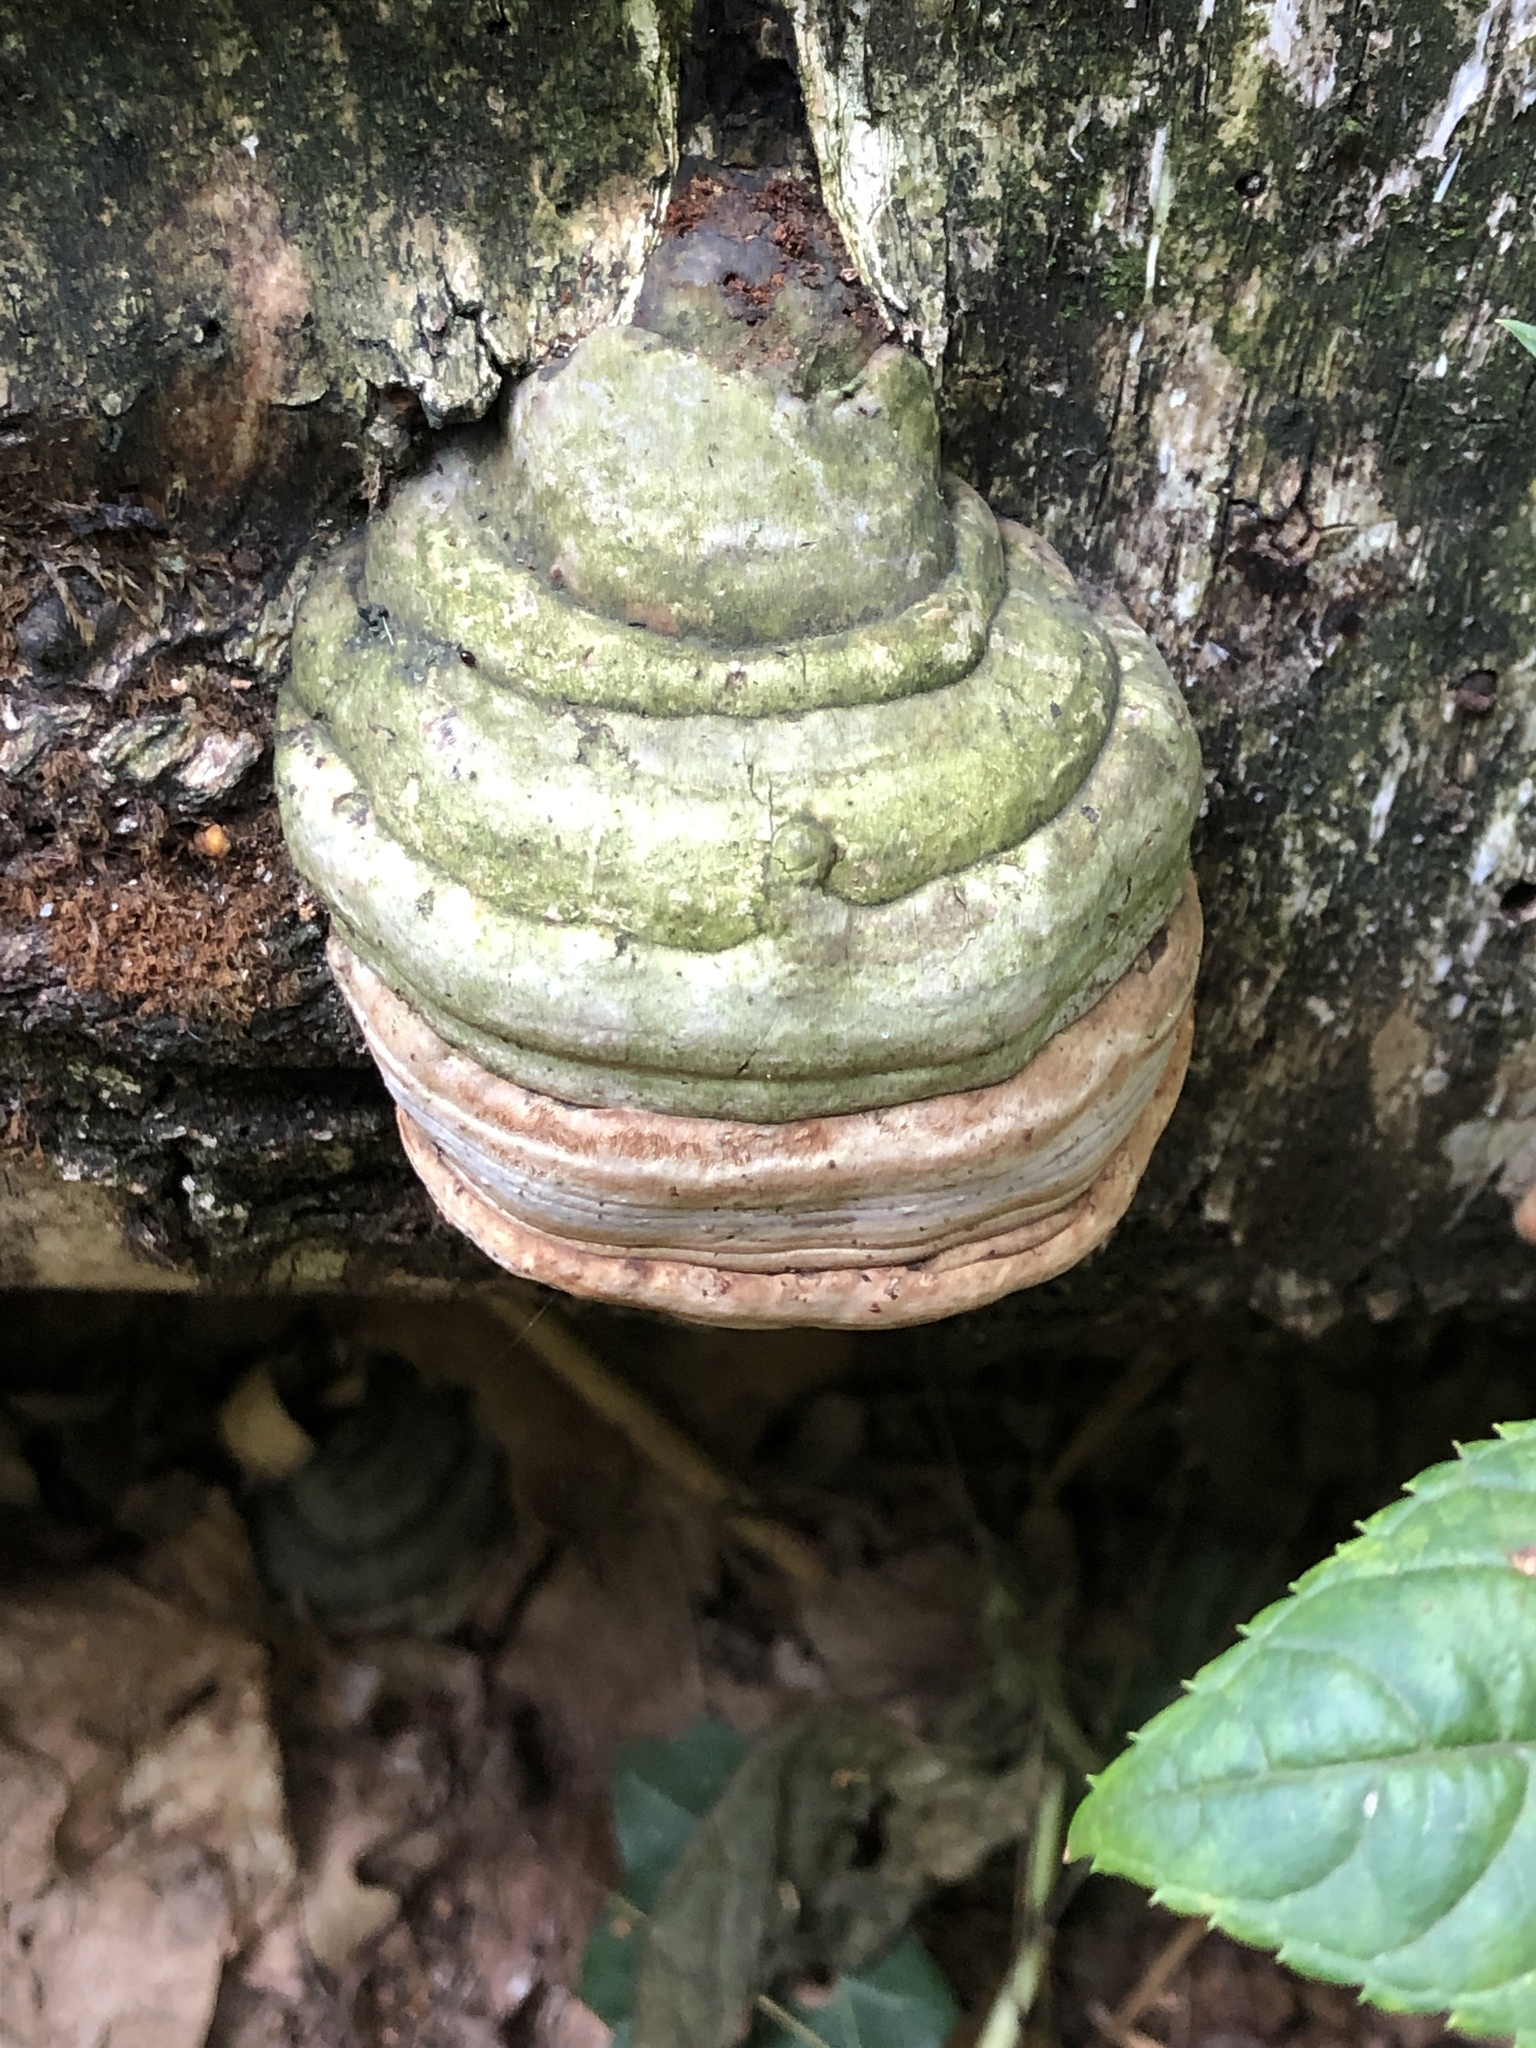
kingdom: Fungi
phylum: Basidiomycota
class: Agaricomycetes
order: Polyporales
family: Polyporaceae
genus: Fomes
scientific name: Fomes fomentarius
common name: Hoof fungus
